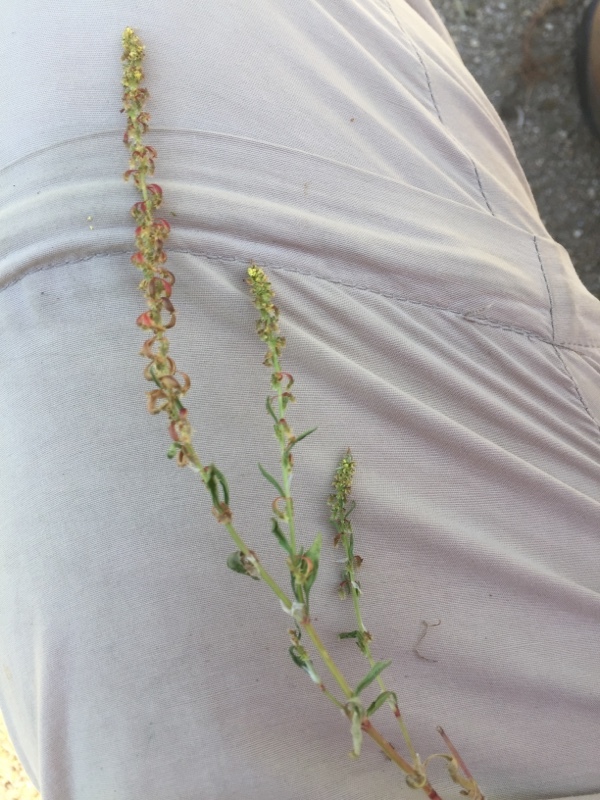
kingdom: Plantae
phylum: Tracheophyta
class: Magnoliopsida
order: Caryophyllales
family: Polygonaceae
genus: Rumex
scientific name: Rumex bucephalophorus
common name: Red dock
